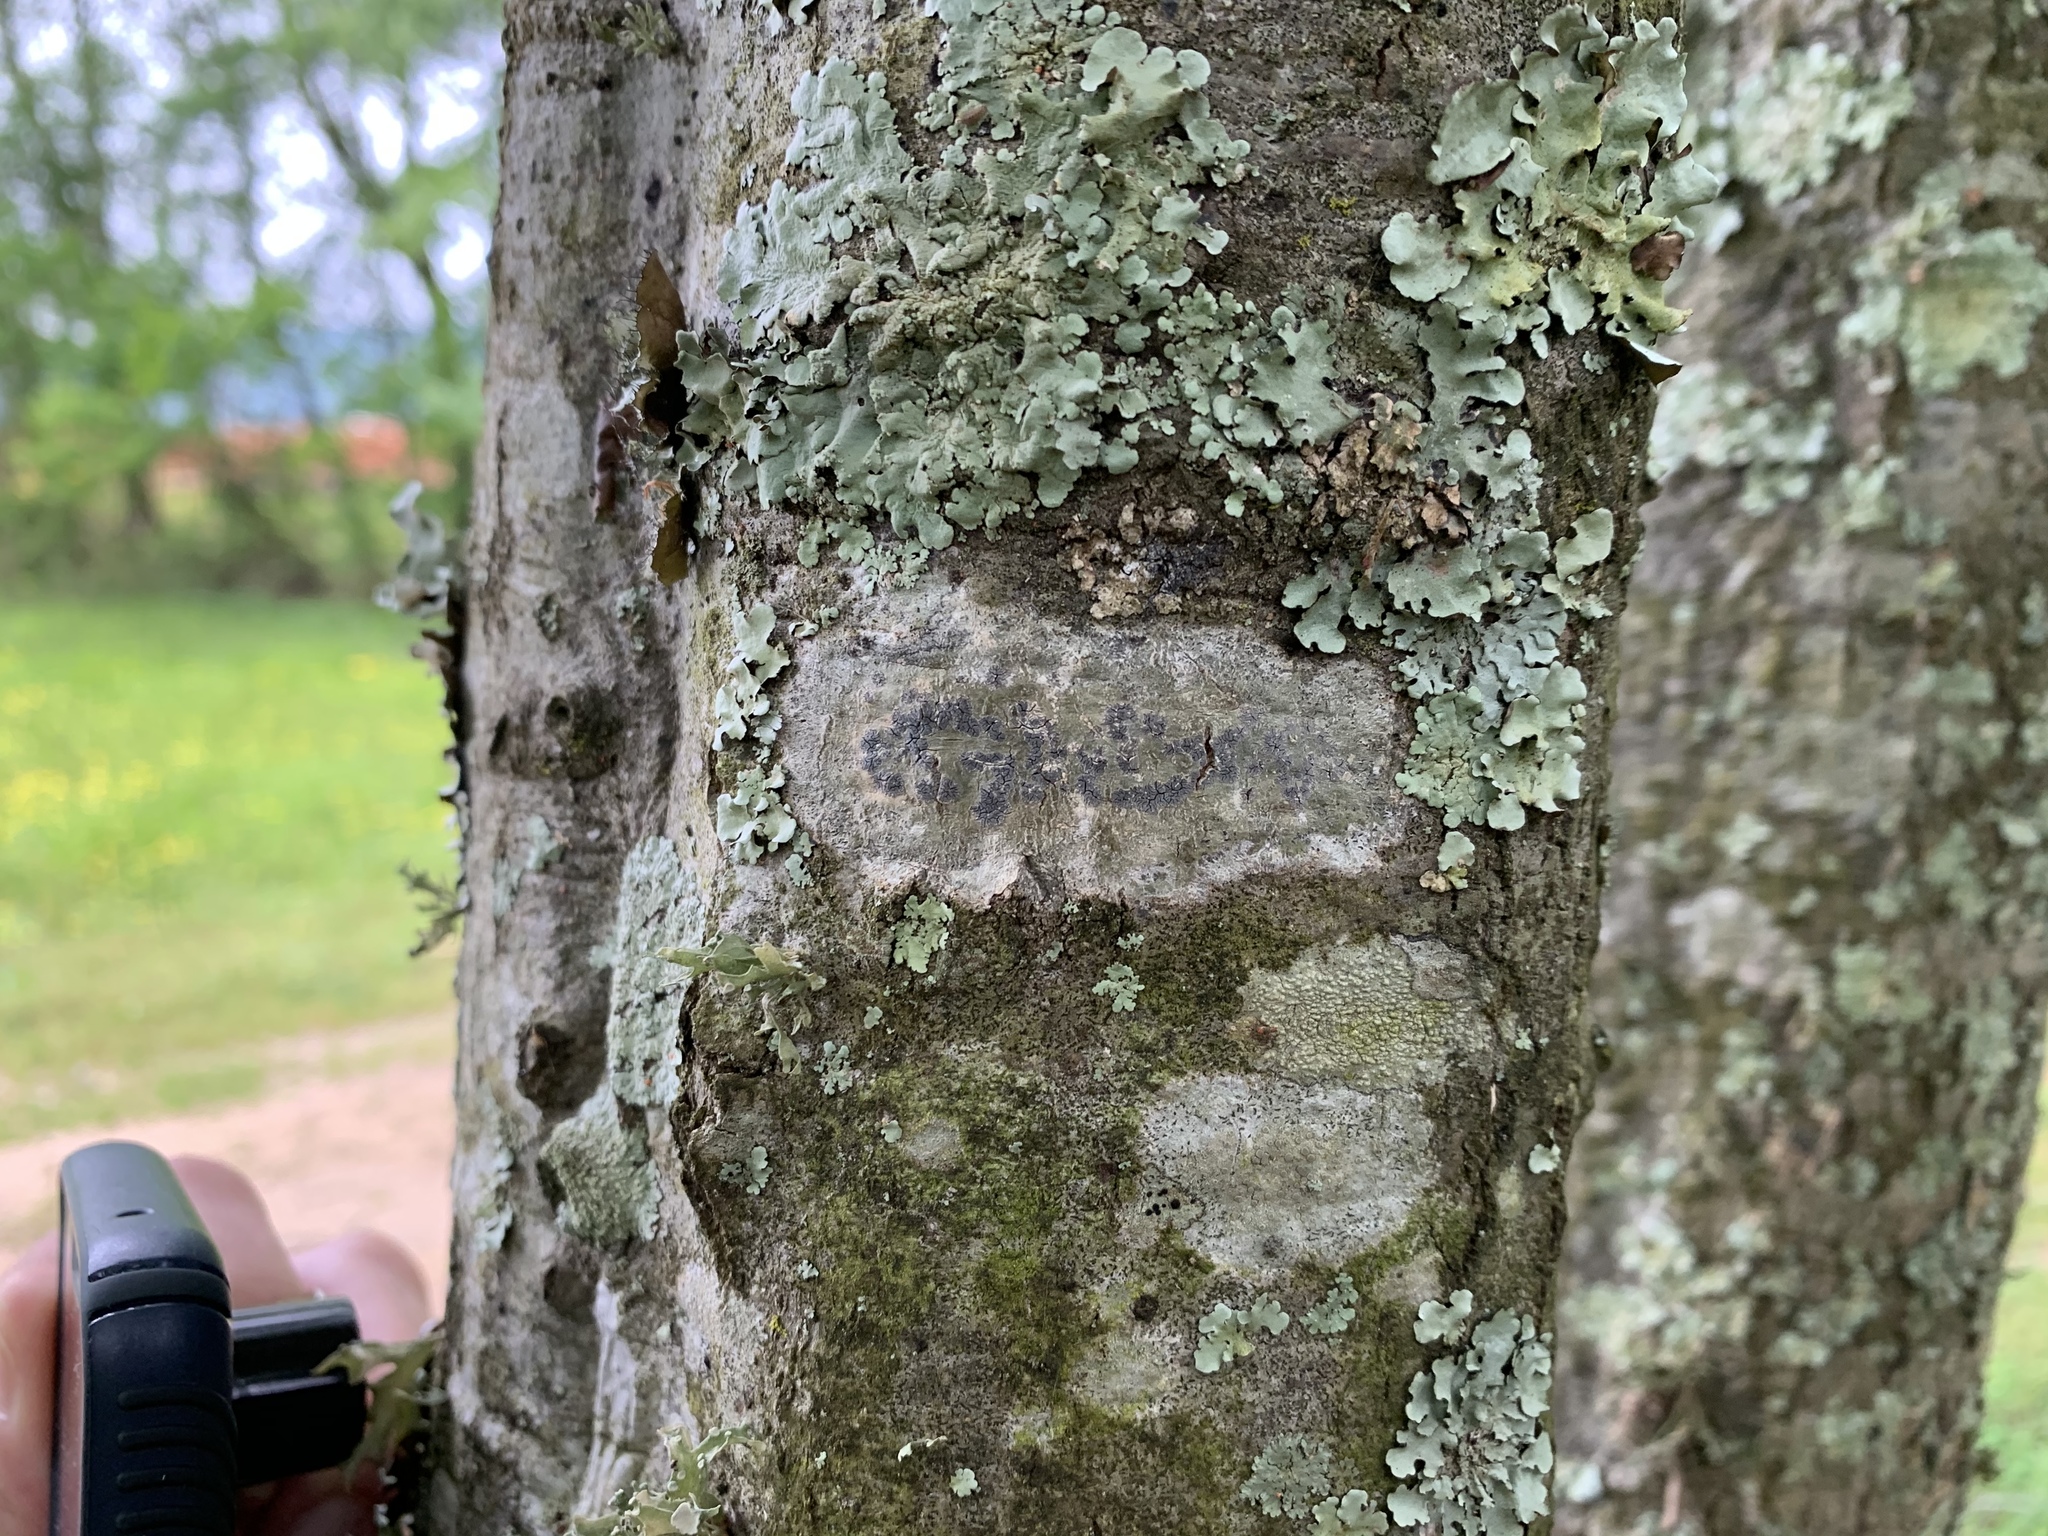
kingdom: Fungi
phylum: Ascomycota
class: Lecanoromycetes
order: Ostropales
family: Graphidaceae
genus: Creographa
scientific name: Creographa brasiliensis
